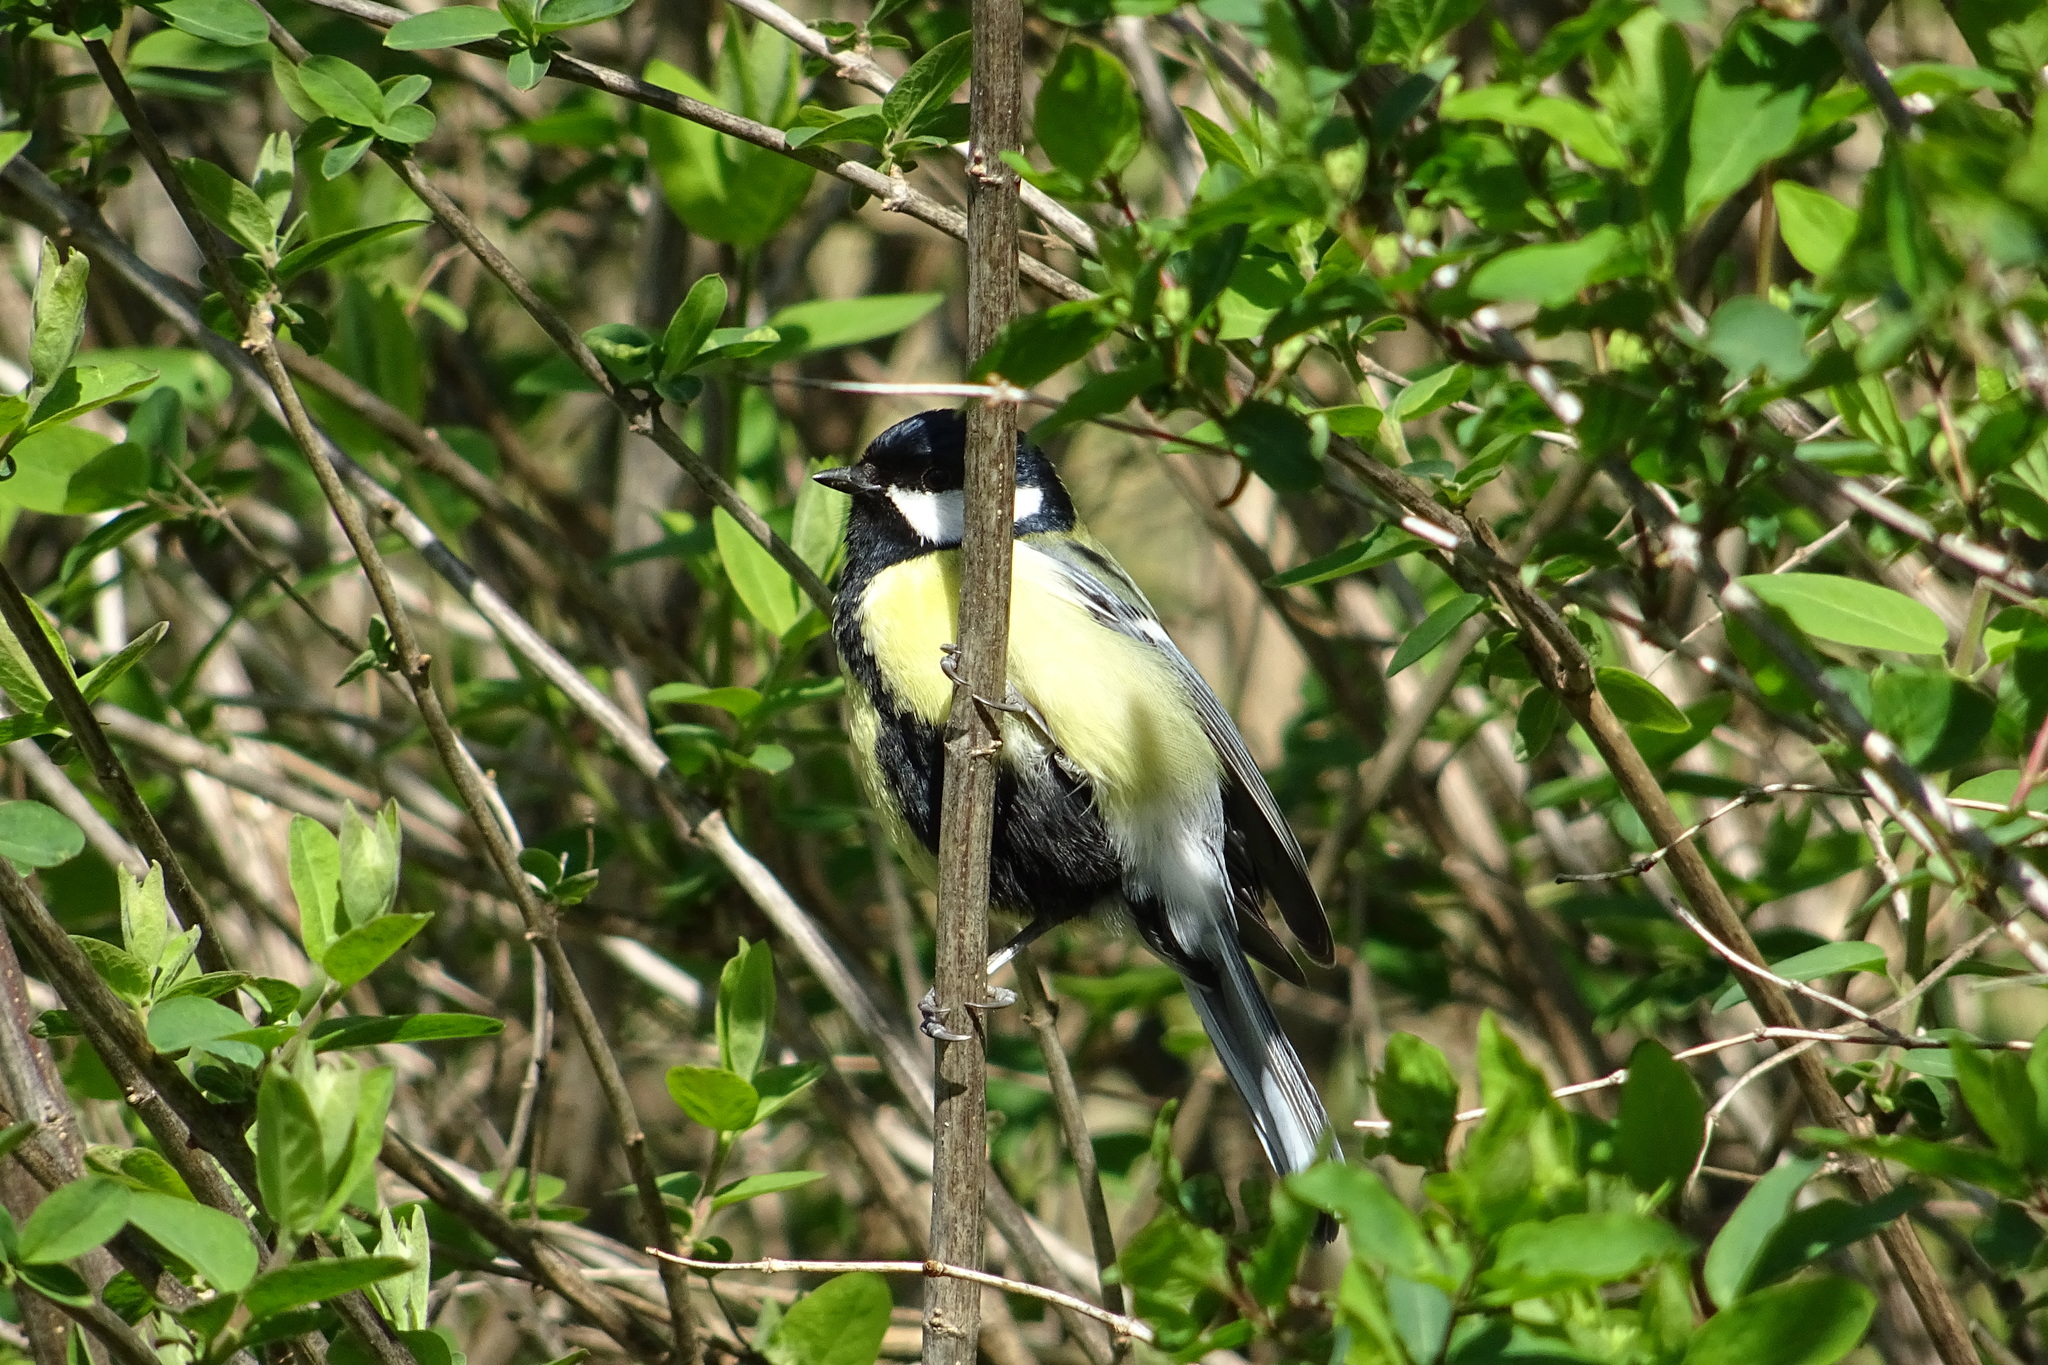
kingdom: Animalia
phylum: Chordata
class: Aves
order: Passeriformes
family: Paridae
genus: Parus
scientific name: Parus major
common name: Great tit
